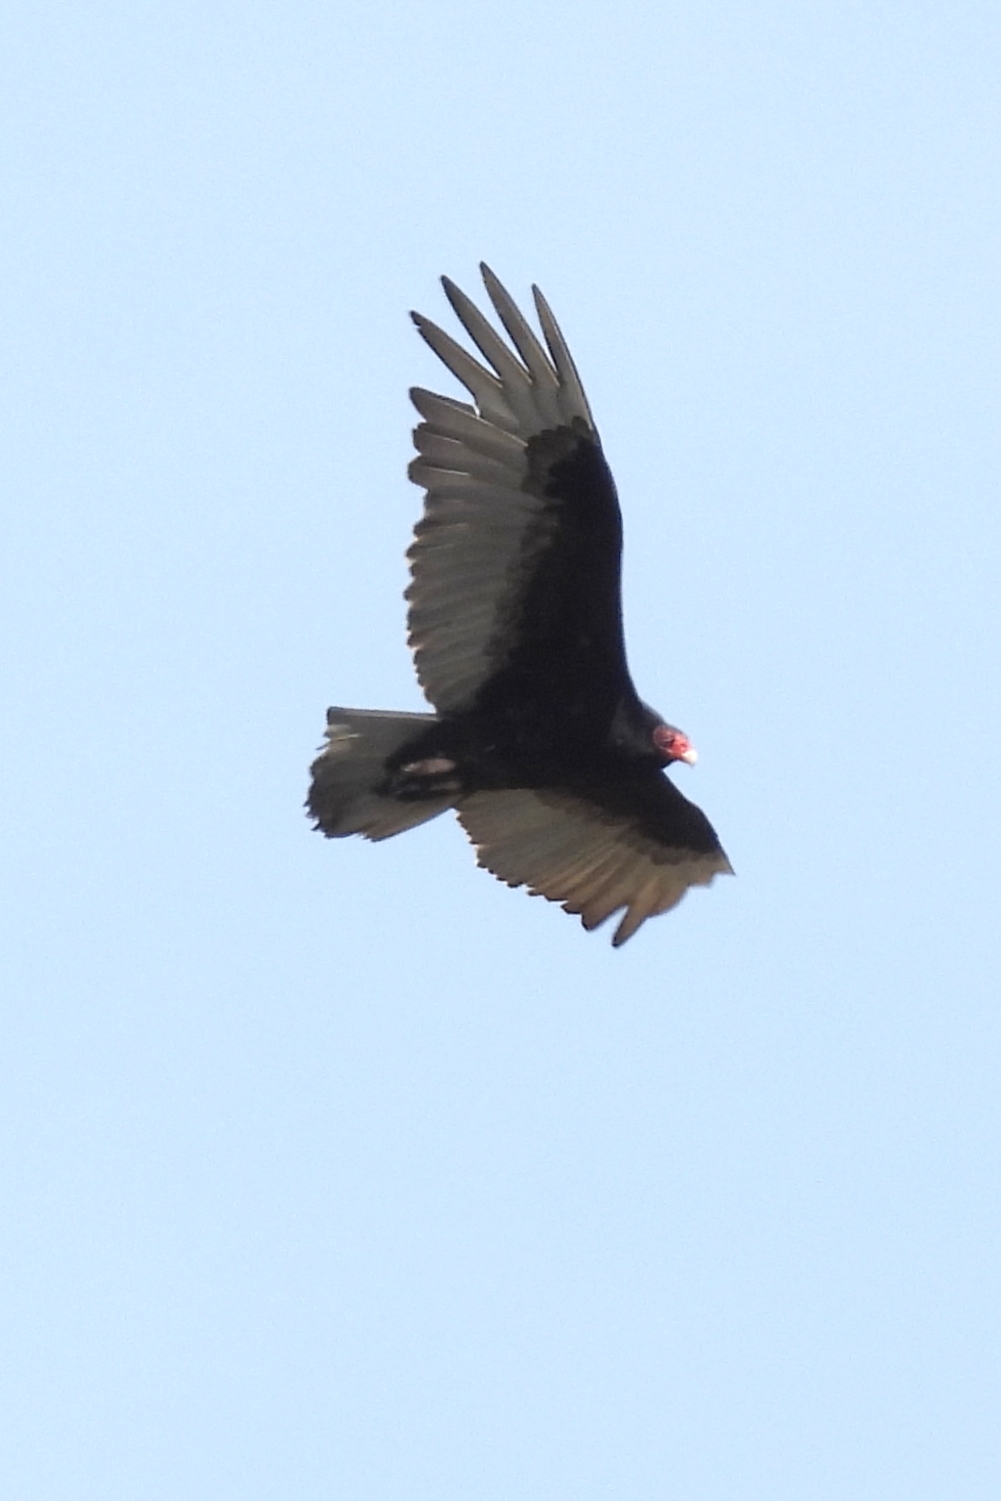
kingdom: Animalia
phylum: Chordata
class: Aves
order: Accipitriformes
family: Cathartidae
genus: Cathartes
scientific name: Cathartes aura
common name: Turkey vulture
